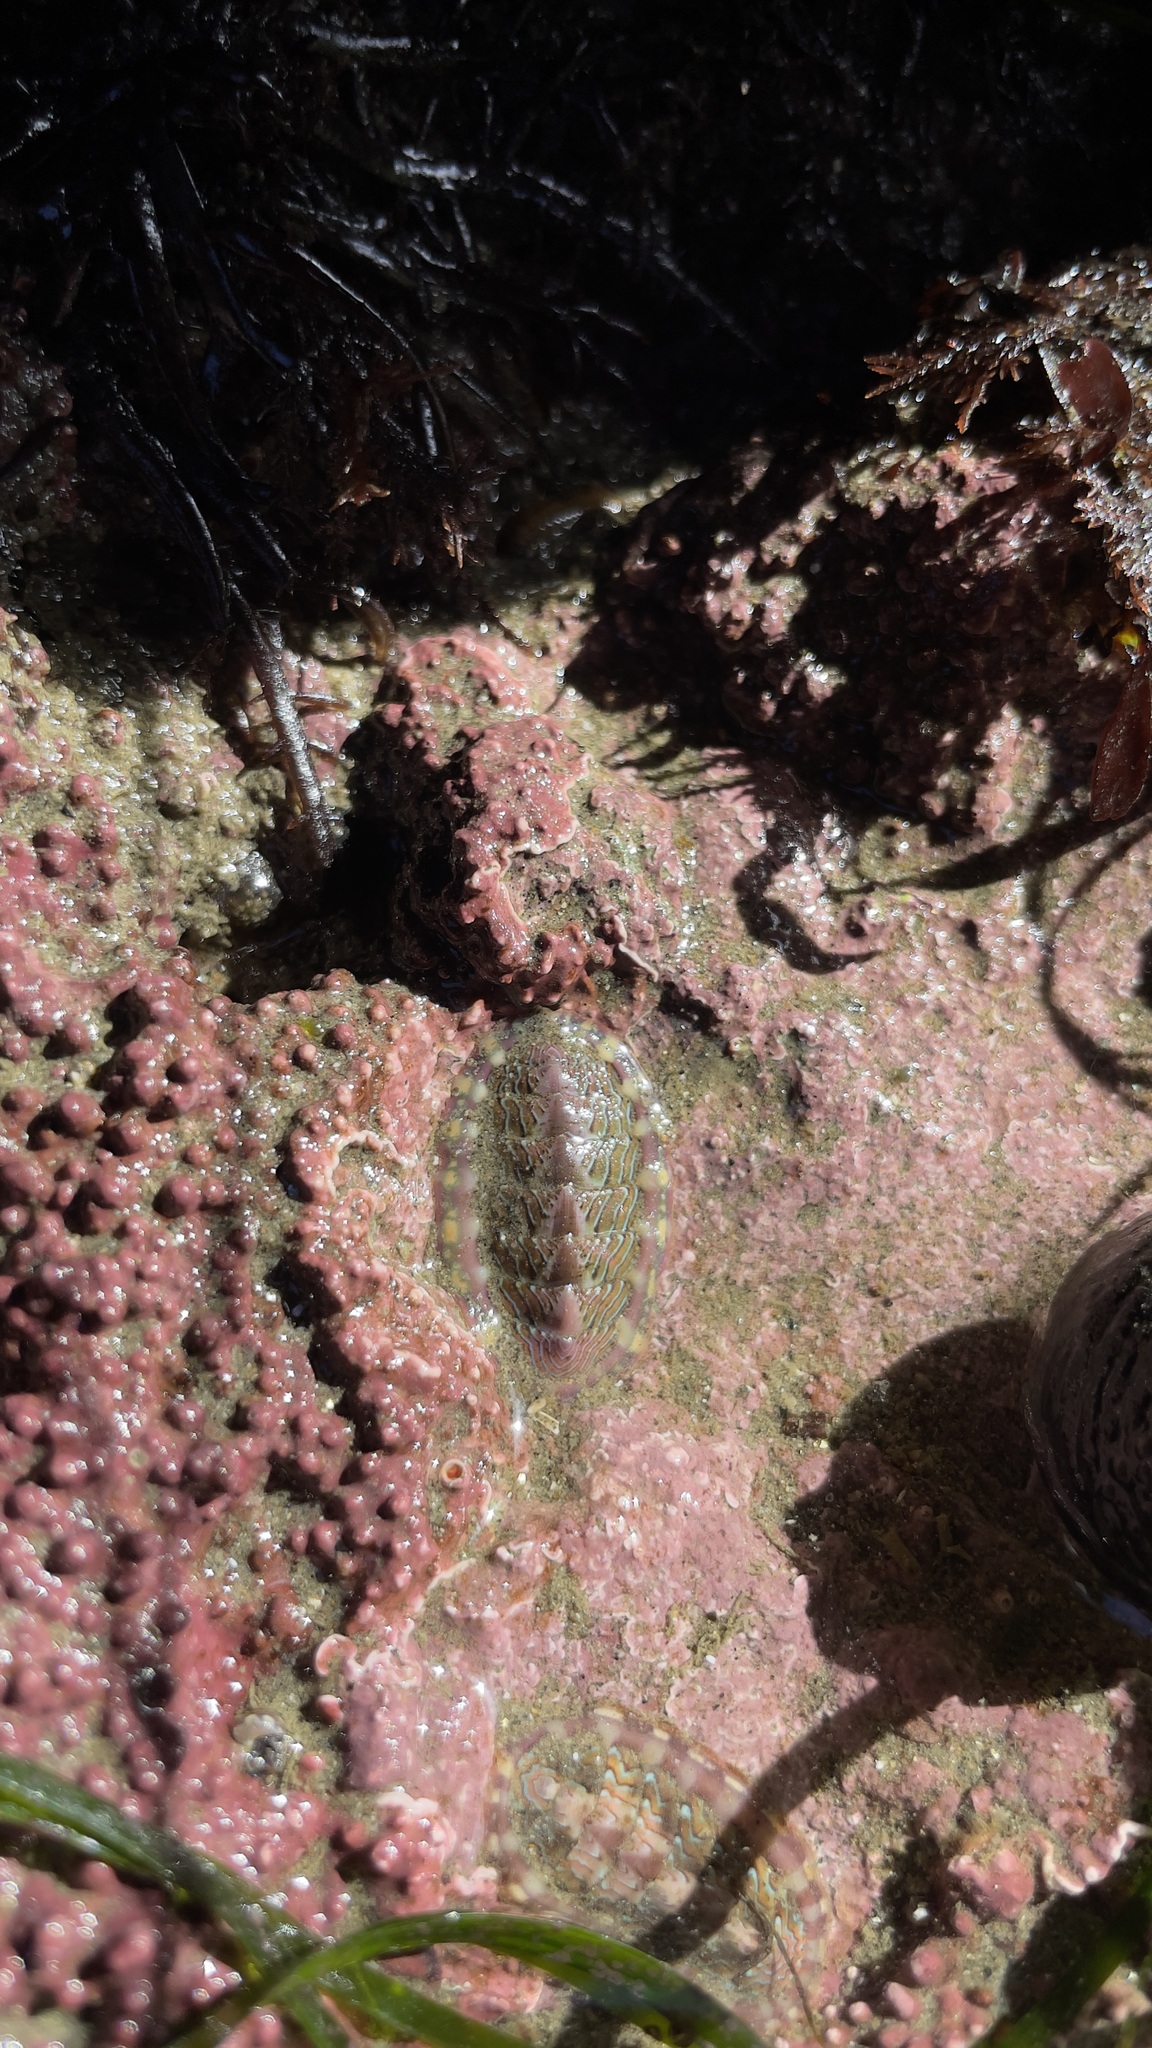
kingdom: Animalia
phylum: Mollusca
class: Polyplacophora
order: Chitonida
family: Tonicellidae
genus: Tonicella
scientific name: Tonicella lineata
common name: Lined chiton
